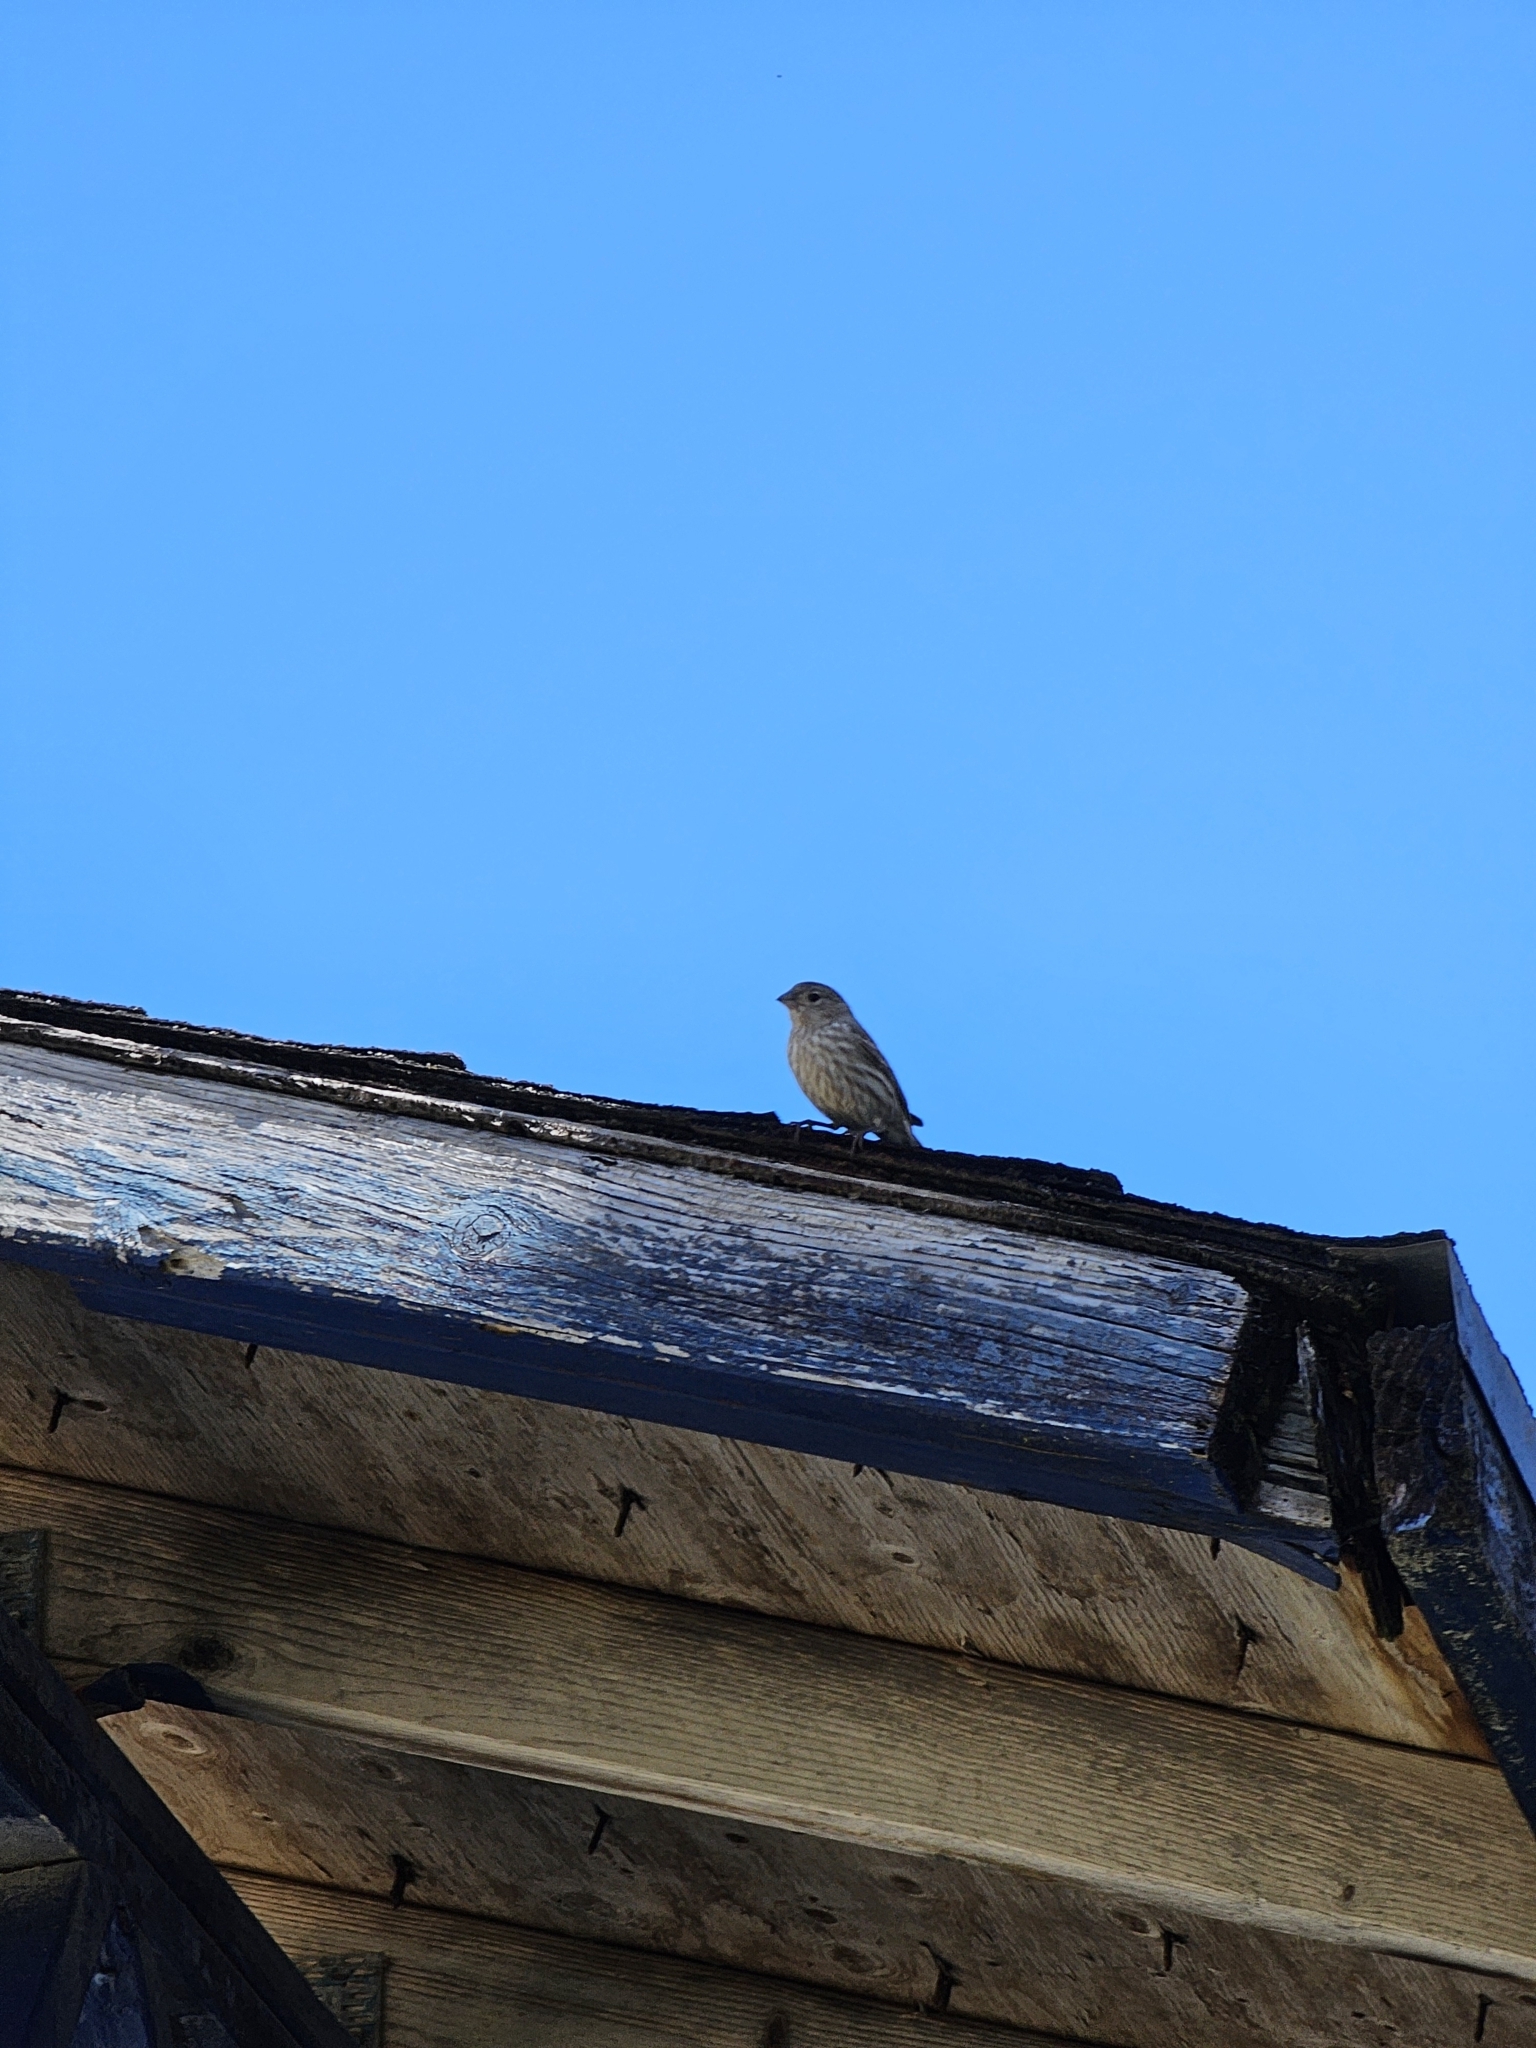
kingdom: Animalia
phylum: Chordata
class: Aves
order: Passeriformes
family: Fringillidae
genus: Haemorhous
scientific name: Haemorhous mexicanus
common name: House finch
